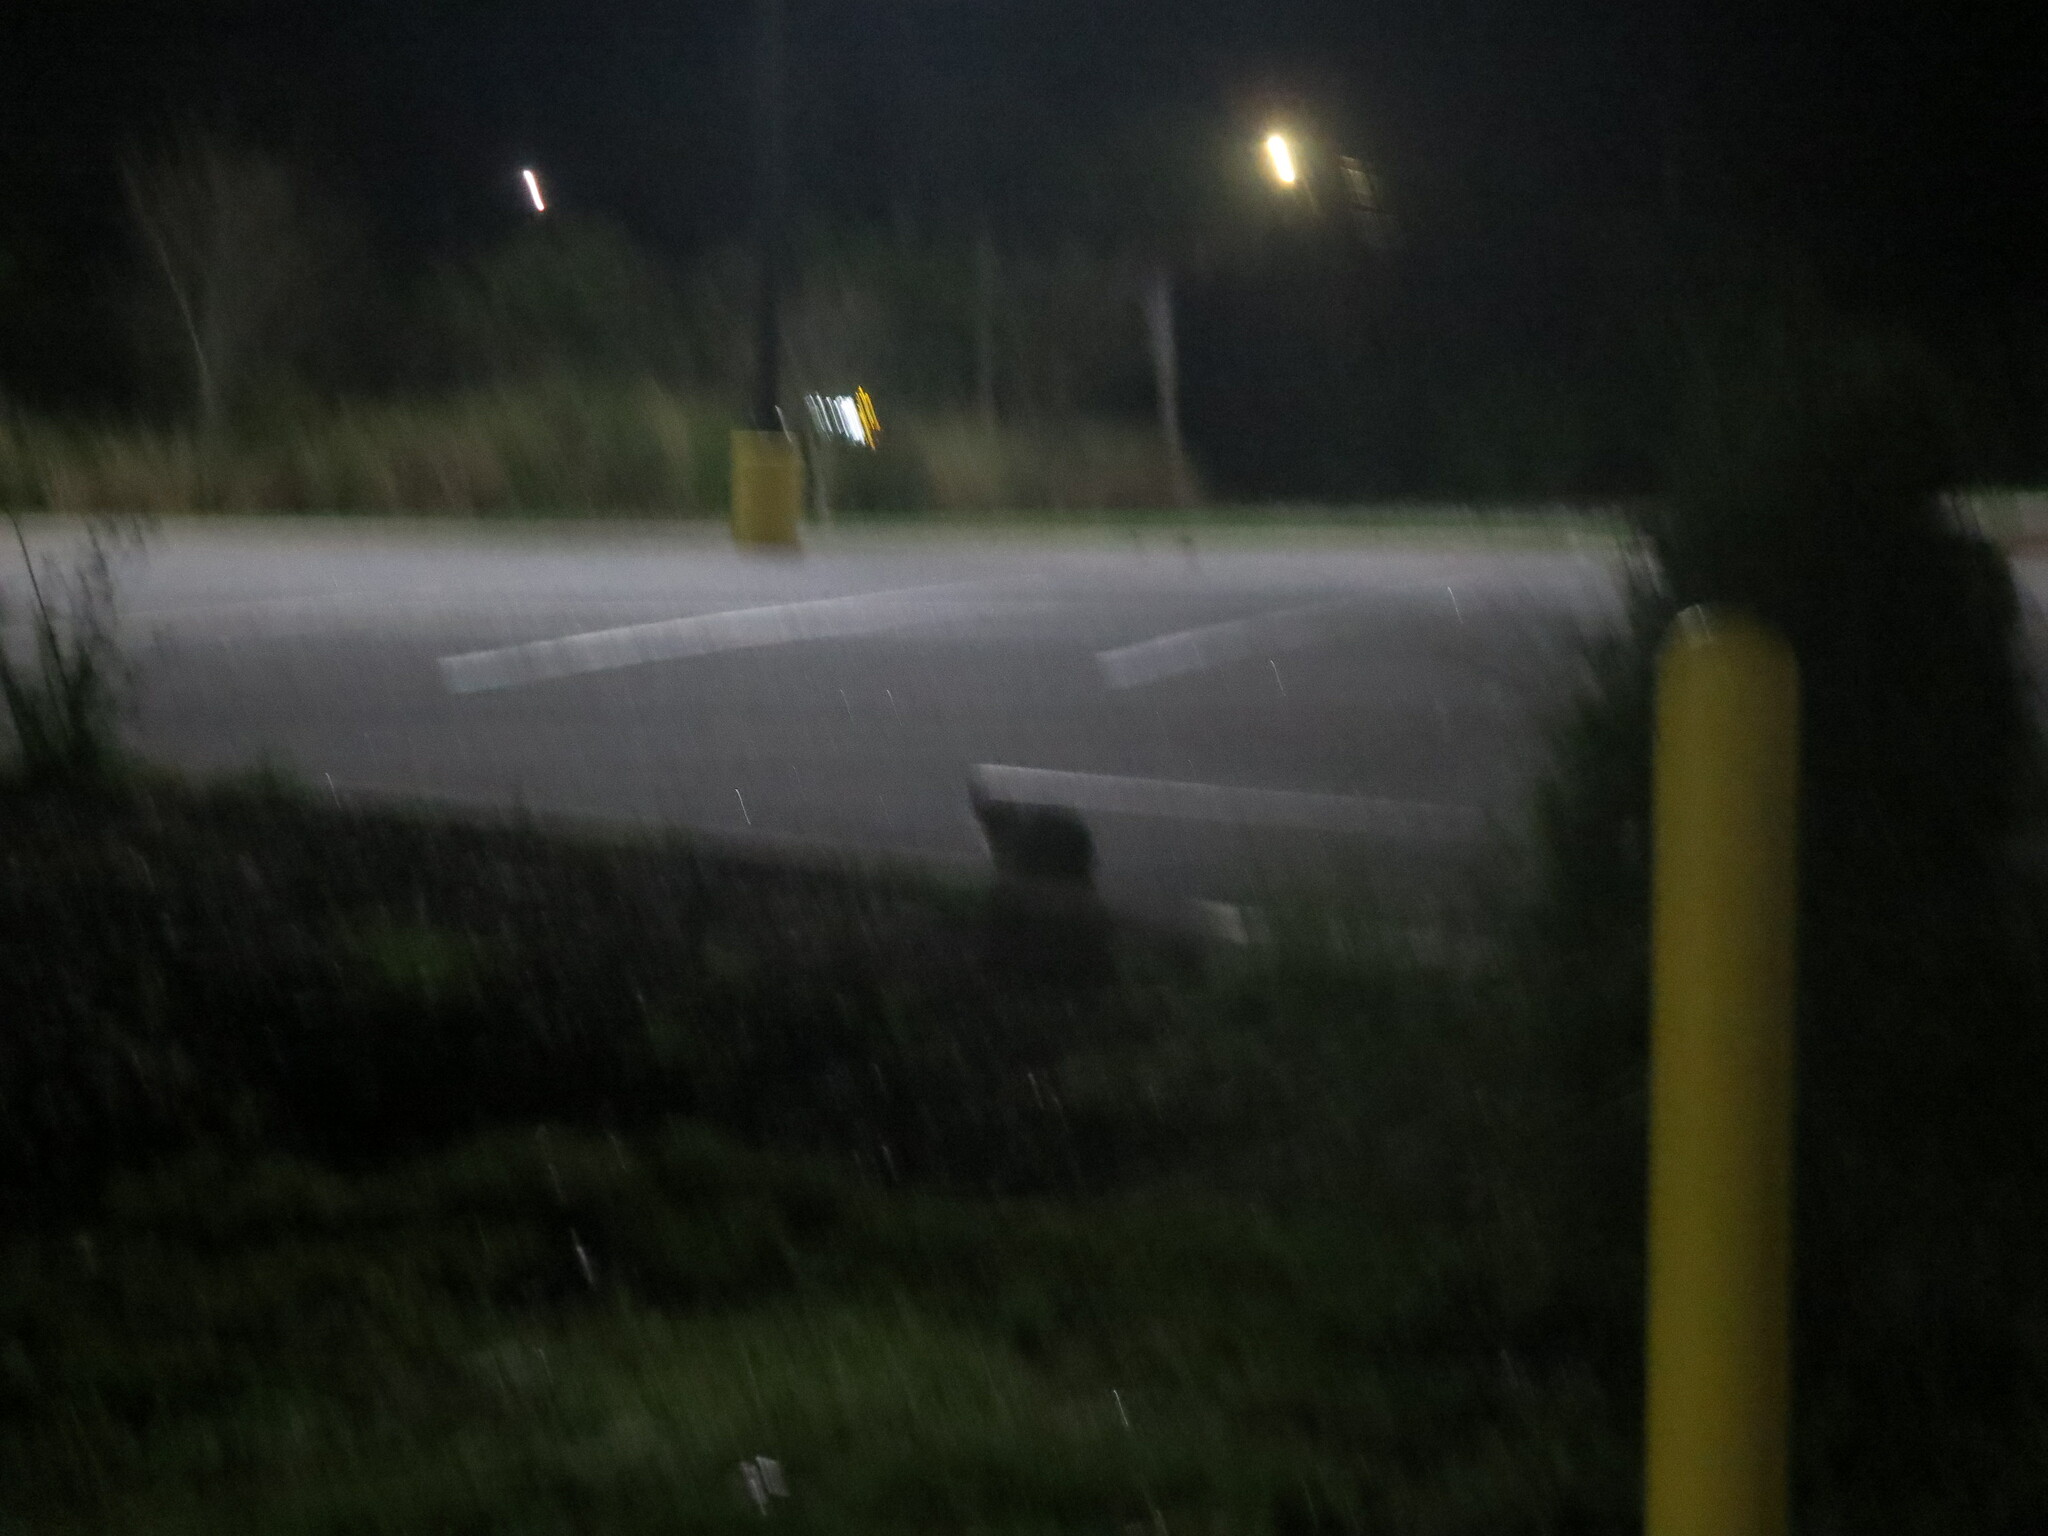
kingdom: Animalia
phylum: Chordata
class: Mammalia
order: Carnivora
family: Felidae
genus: Felis
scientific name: Felis catus
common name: Domestic cat
